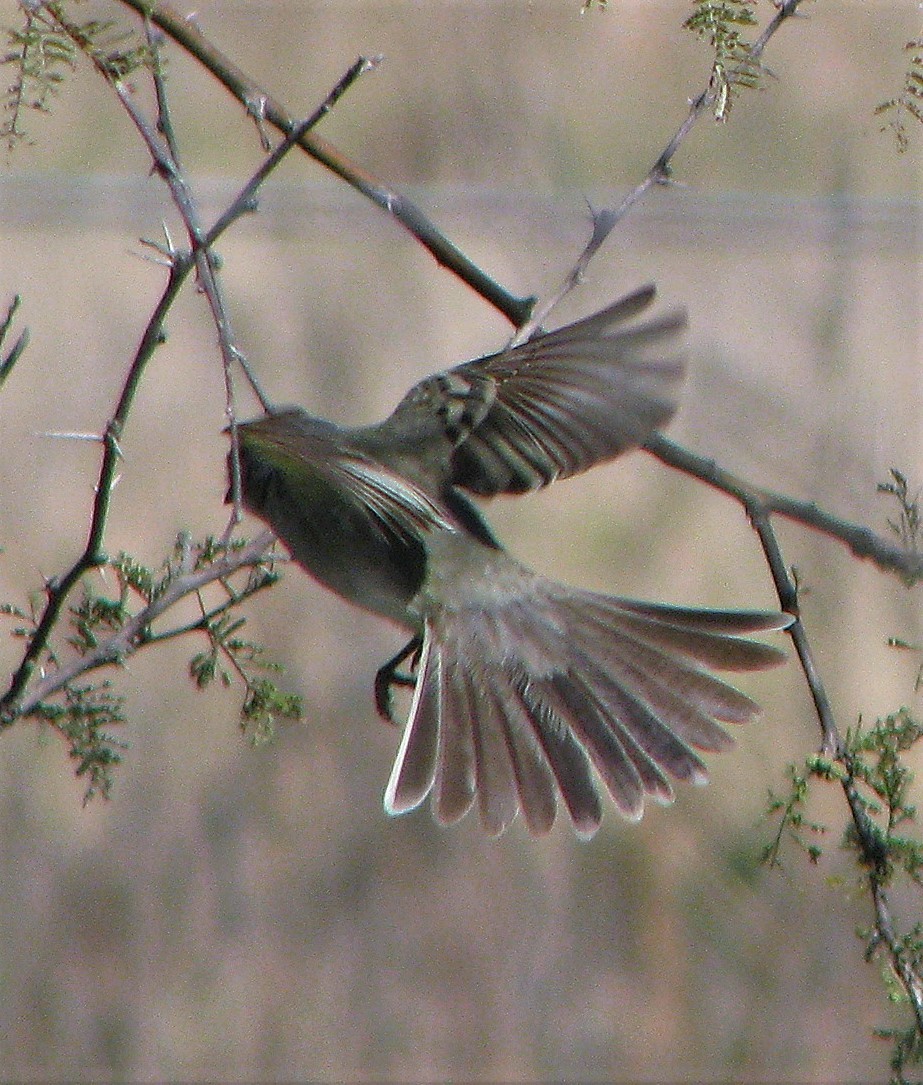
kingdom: Animalia
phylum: Chordata
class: Aves
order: Passeriformes
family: Tyrannidae
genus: Suiriri
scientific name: Suiriri suiriri
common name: Suiriri flycatcher
